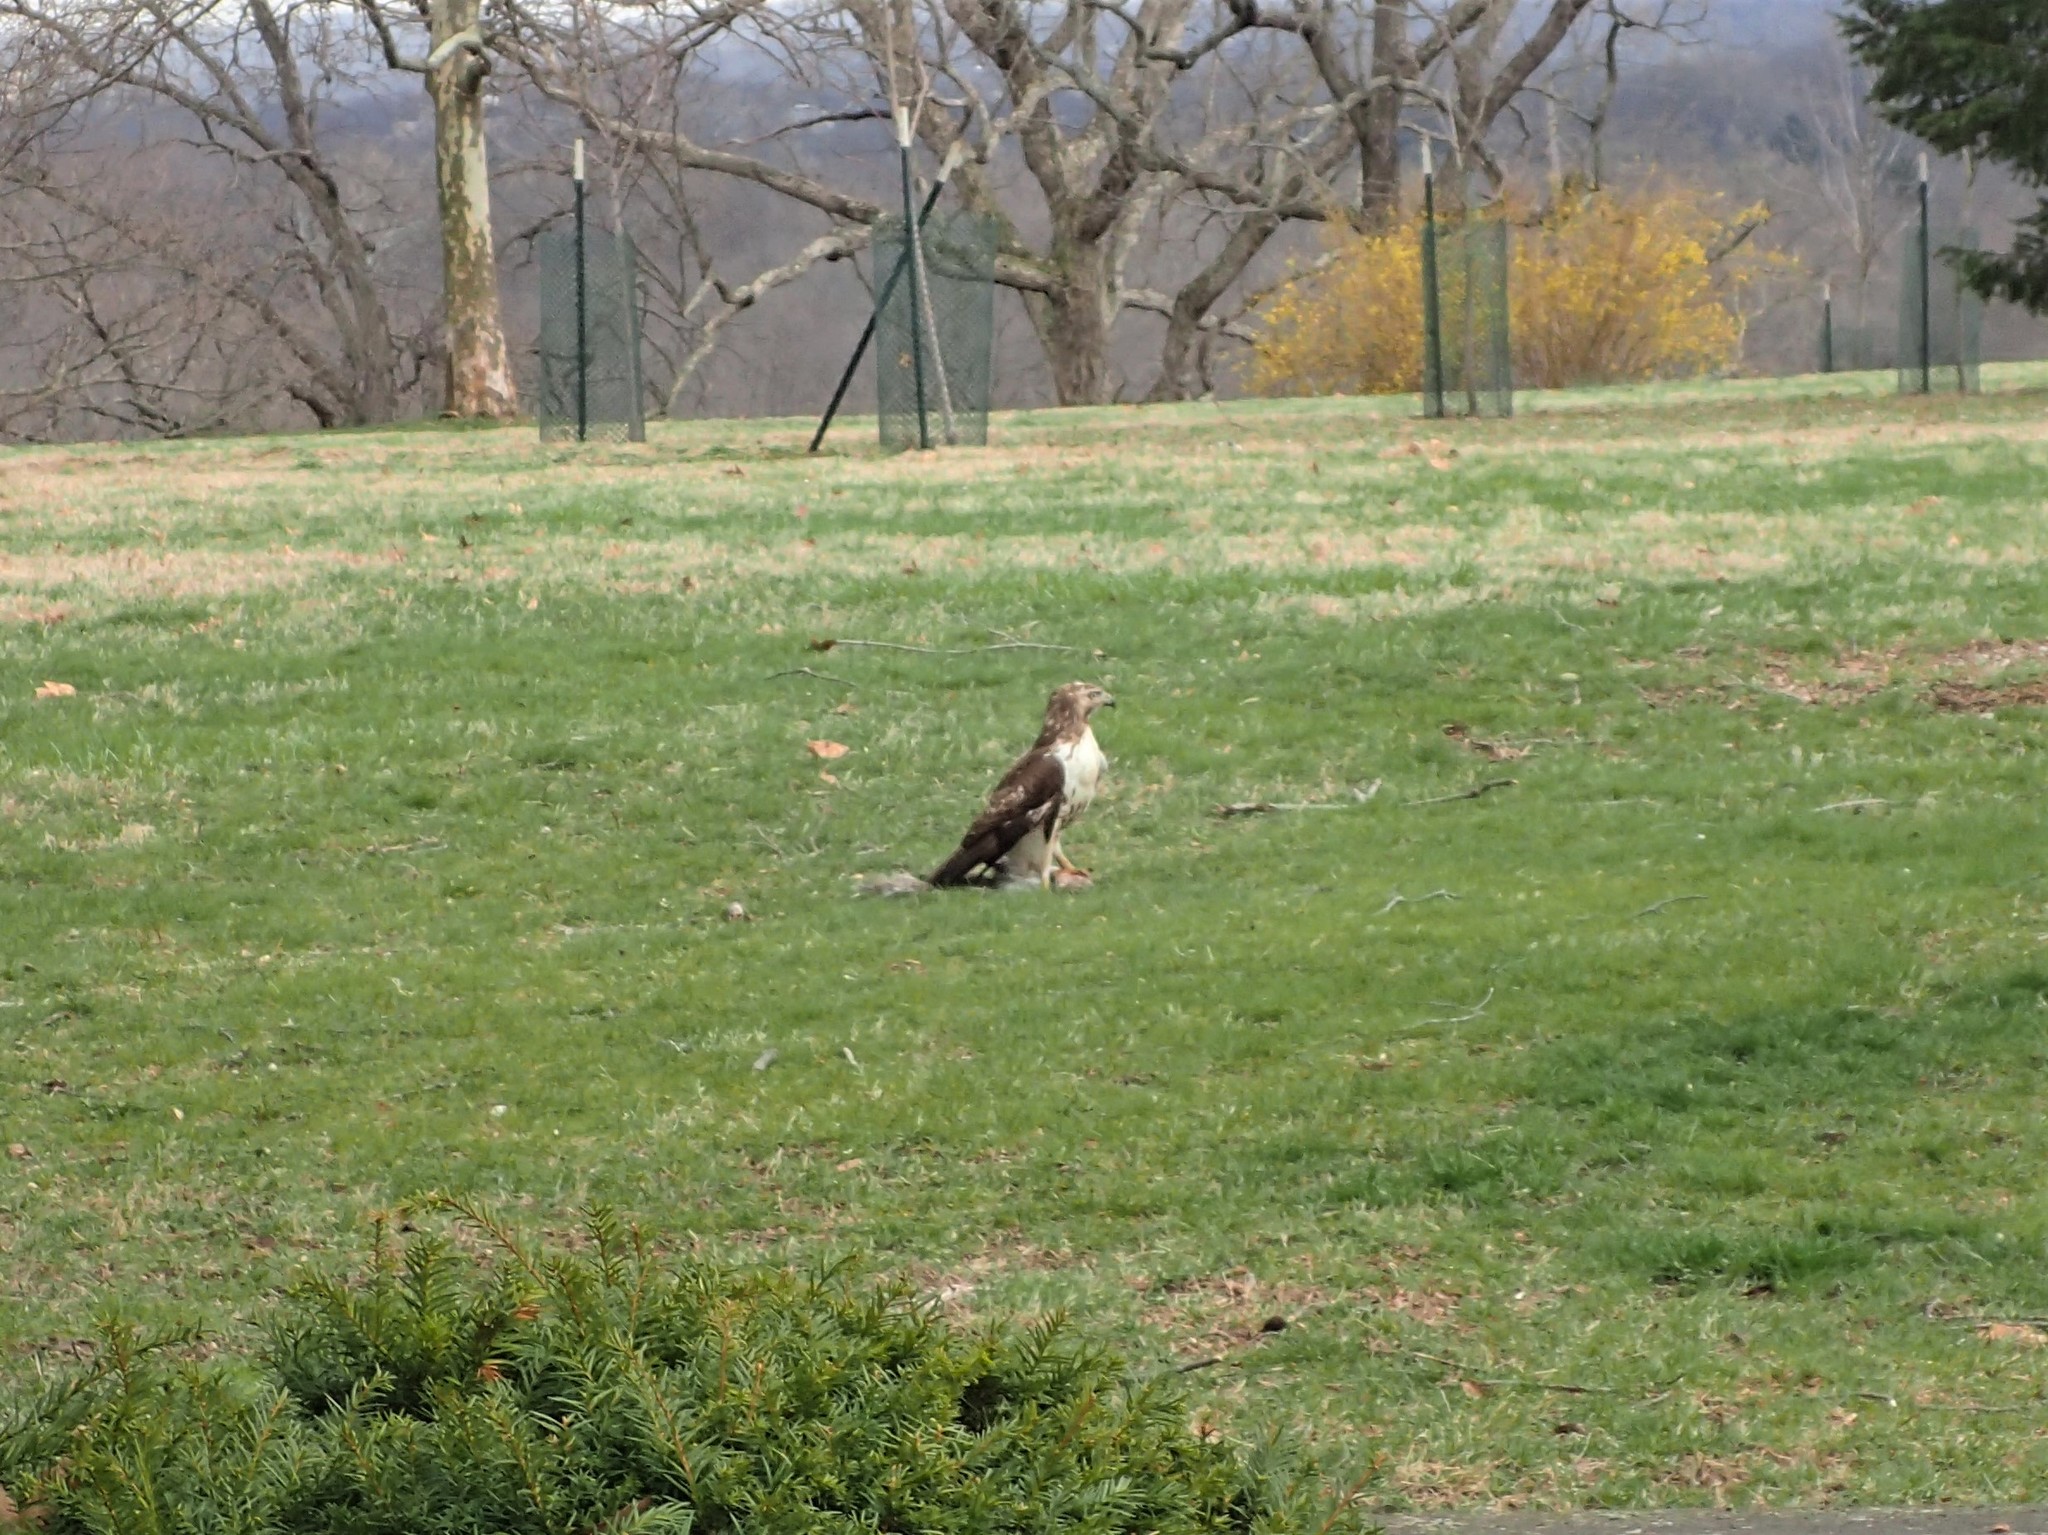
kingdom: Animalia
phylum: Chordata
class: Aves
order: Accipitriformes
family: Accipitridae
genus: Buteo
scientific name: Buteo jamaicensis
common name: Red-tailed hawk
